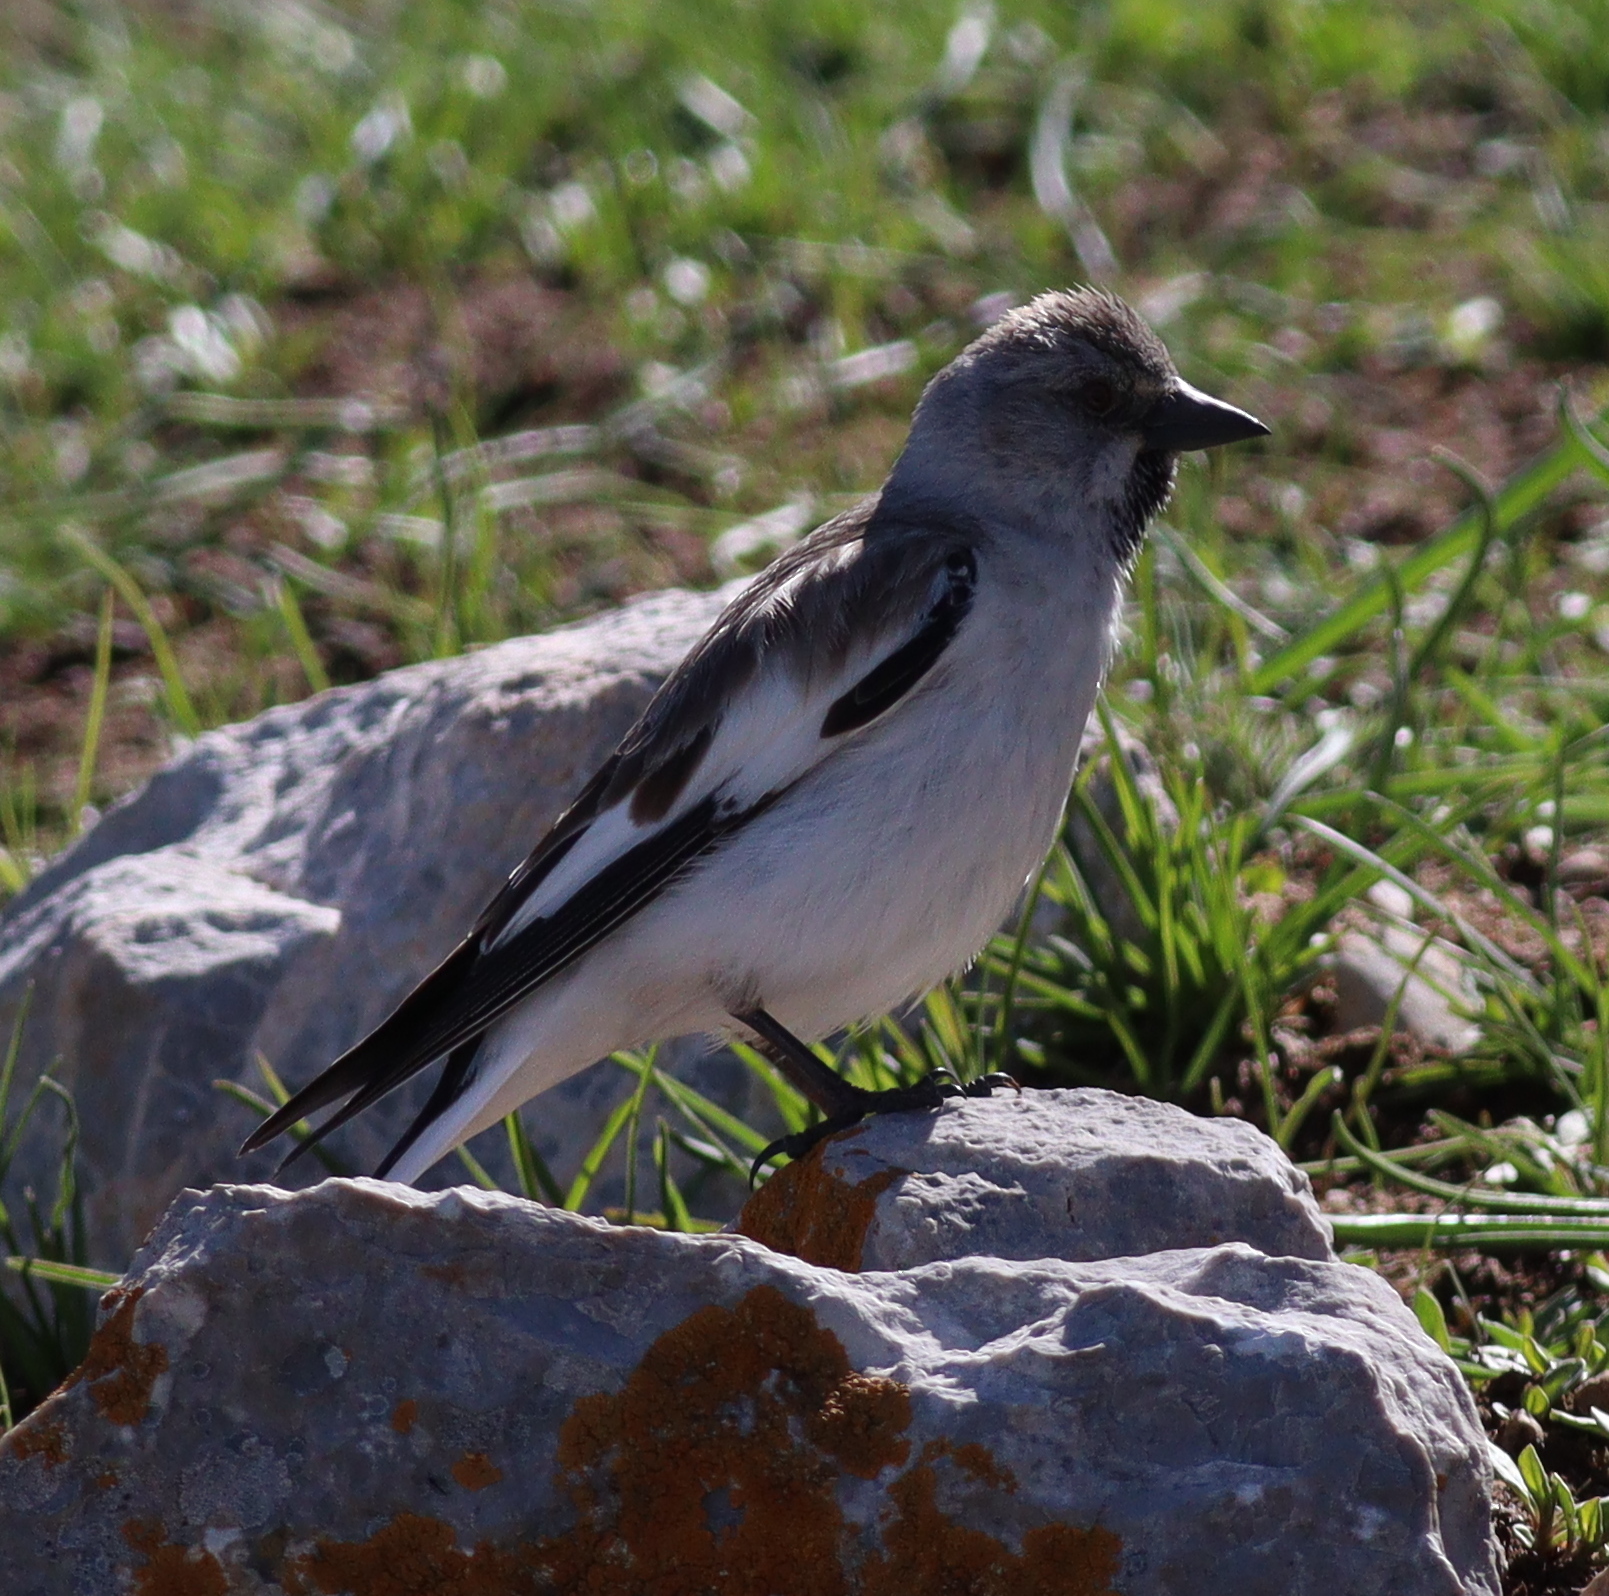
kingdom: Animalia
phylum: Chordata
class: Aves
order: Passeriformes
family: Passeridae
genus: Montifringilla
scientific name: Montifringilla nivalis
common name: White-winged snowfinch
